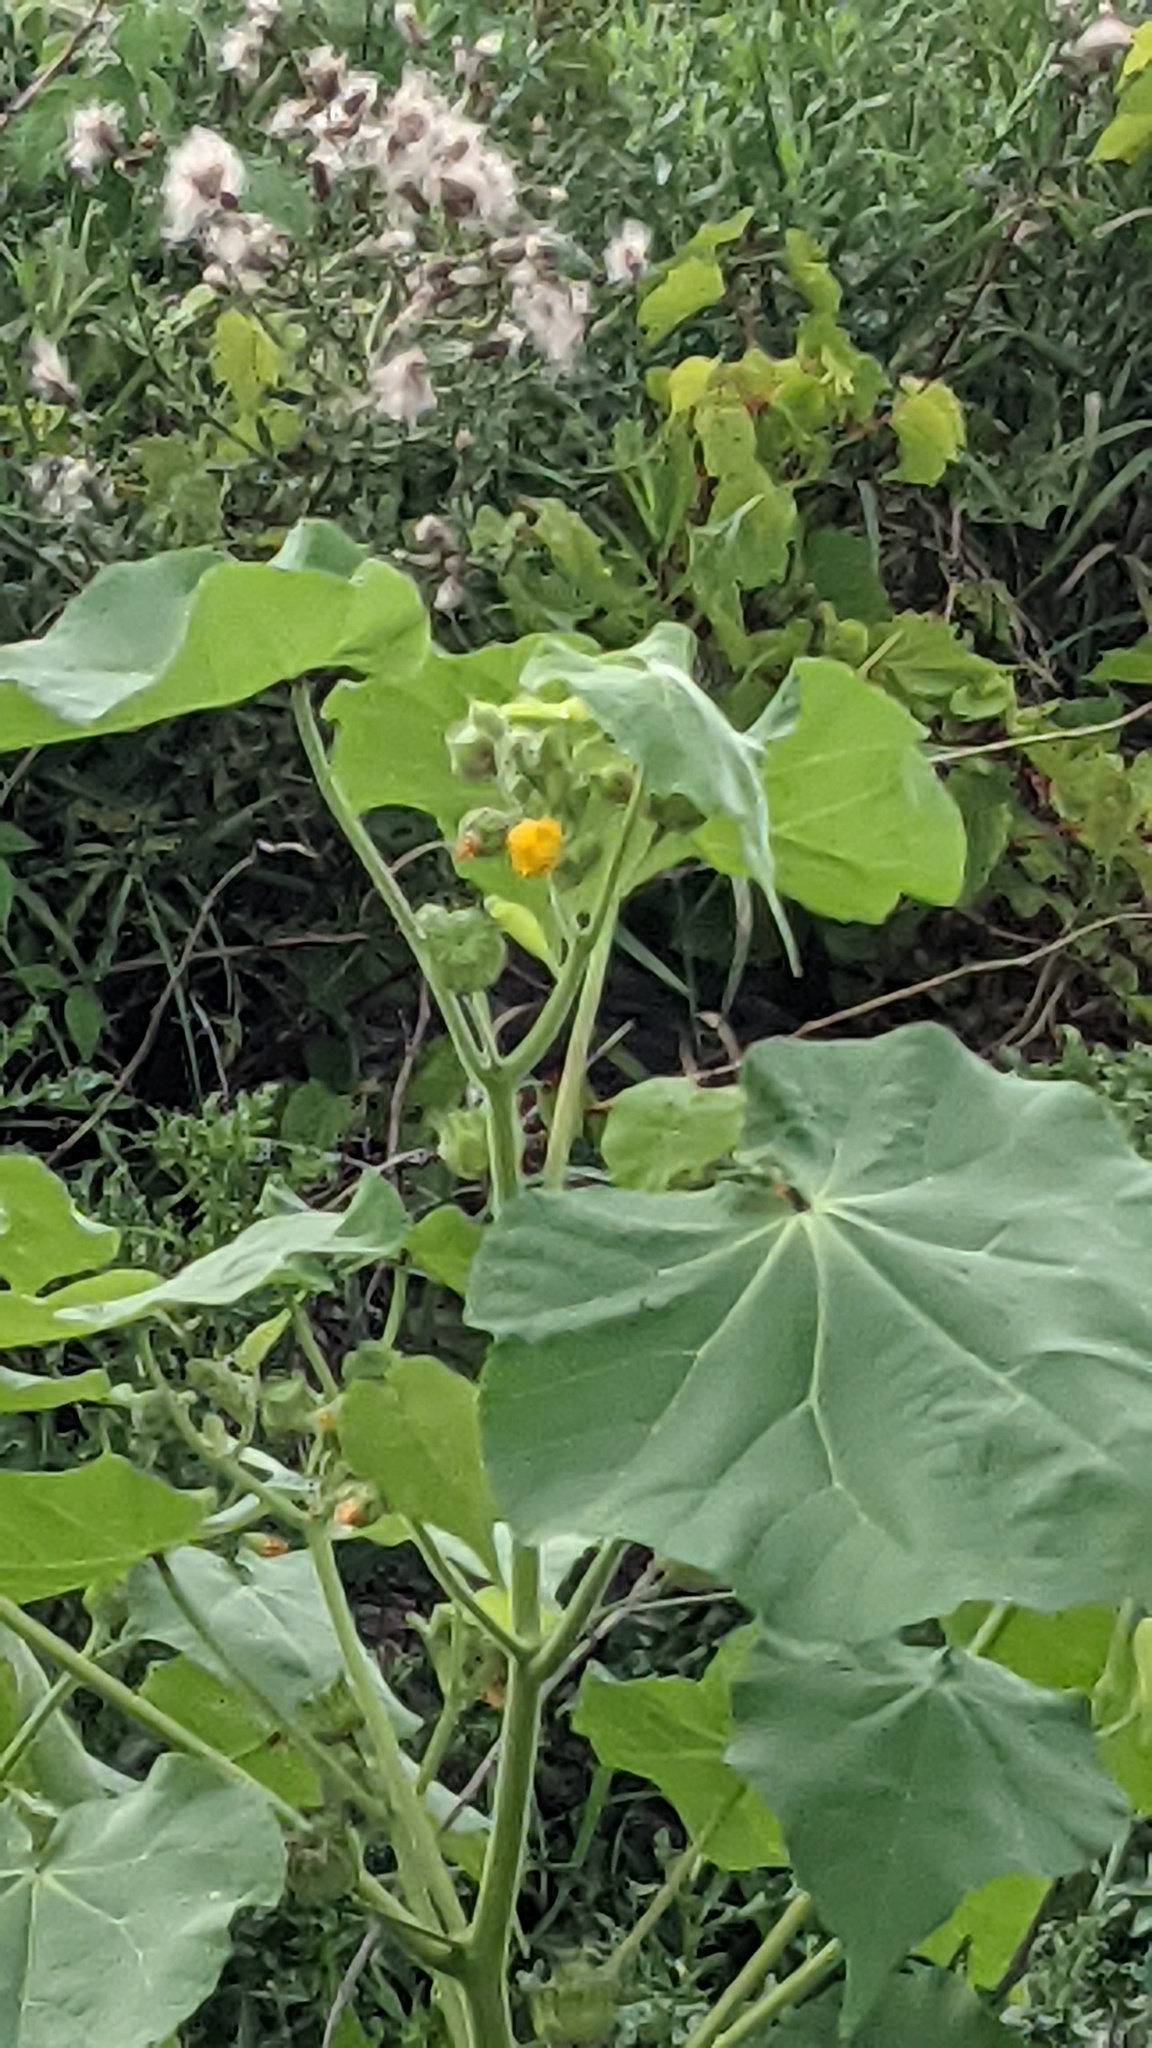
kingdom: Plantae
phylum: Tracheophyta
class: Magnoliopsida
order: Malvales
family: Malvaceae
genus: Abutilon
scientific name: Abutilon theophrasti
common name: Velvetleaf
